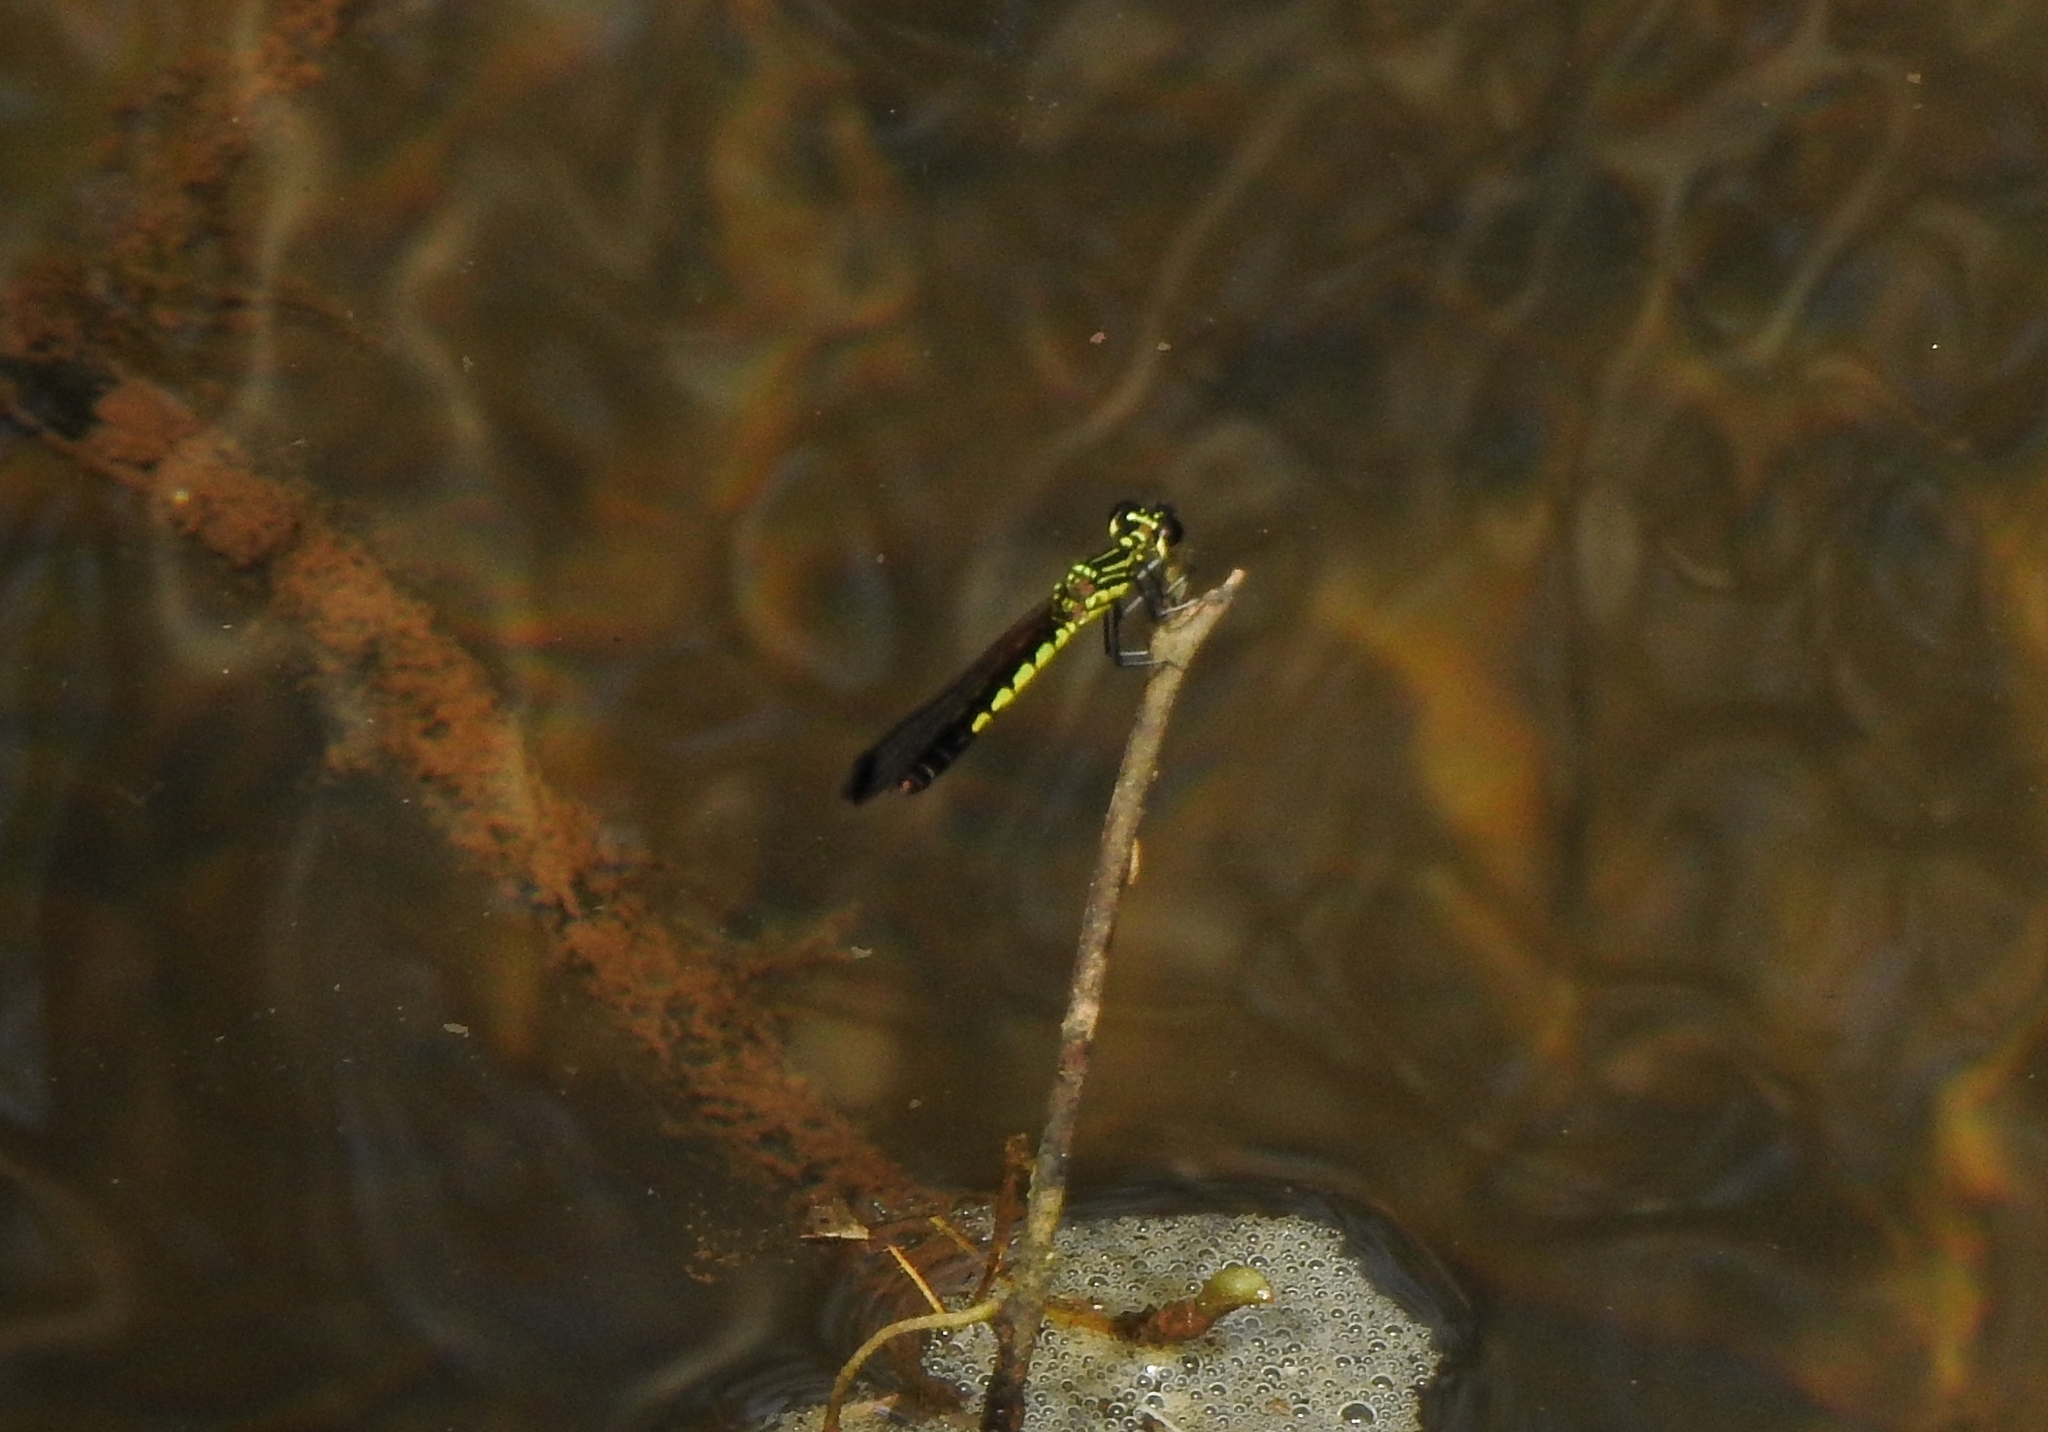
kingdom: Animalia
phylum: Arthropoda
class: Insecta
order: Odonata
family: Chlorocyphidae
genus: Libellago
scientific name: Libellago indica
